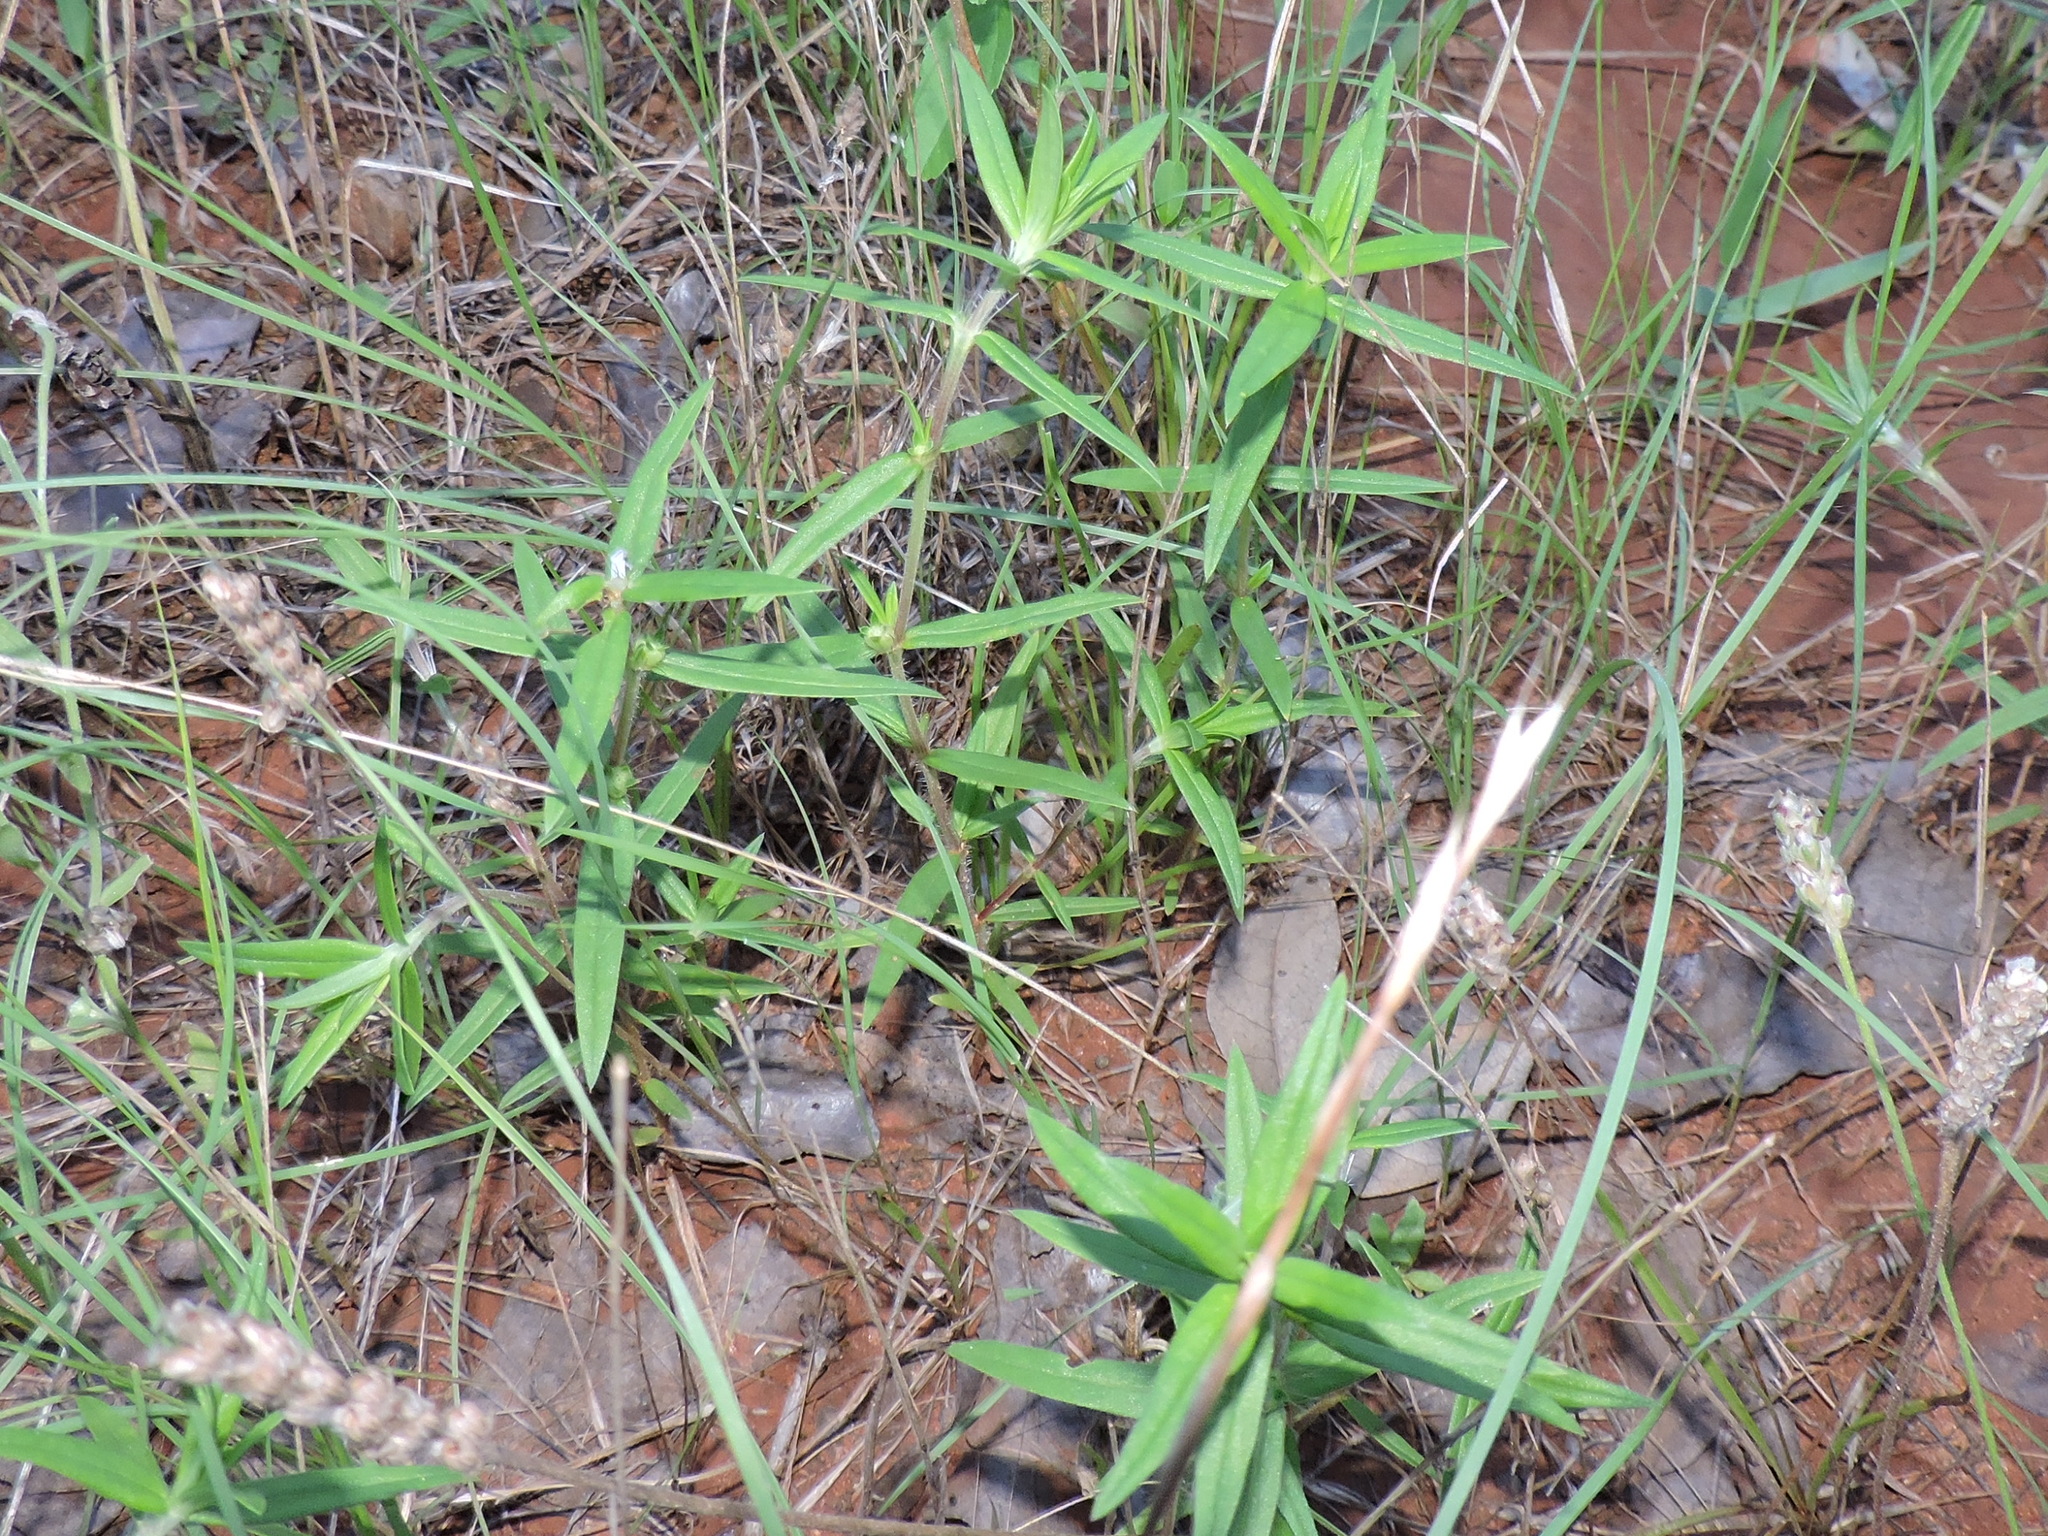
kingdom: Plantae
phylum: Tracheophyta
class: Magnoliopsida
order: Gentianales
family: Rubiaceae
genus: Hexasepalum
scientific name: Hexasepalum teres
